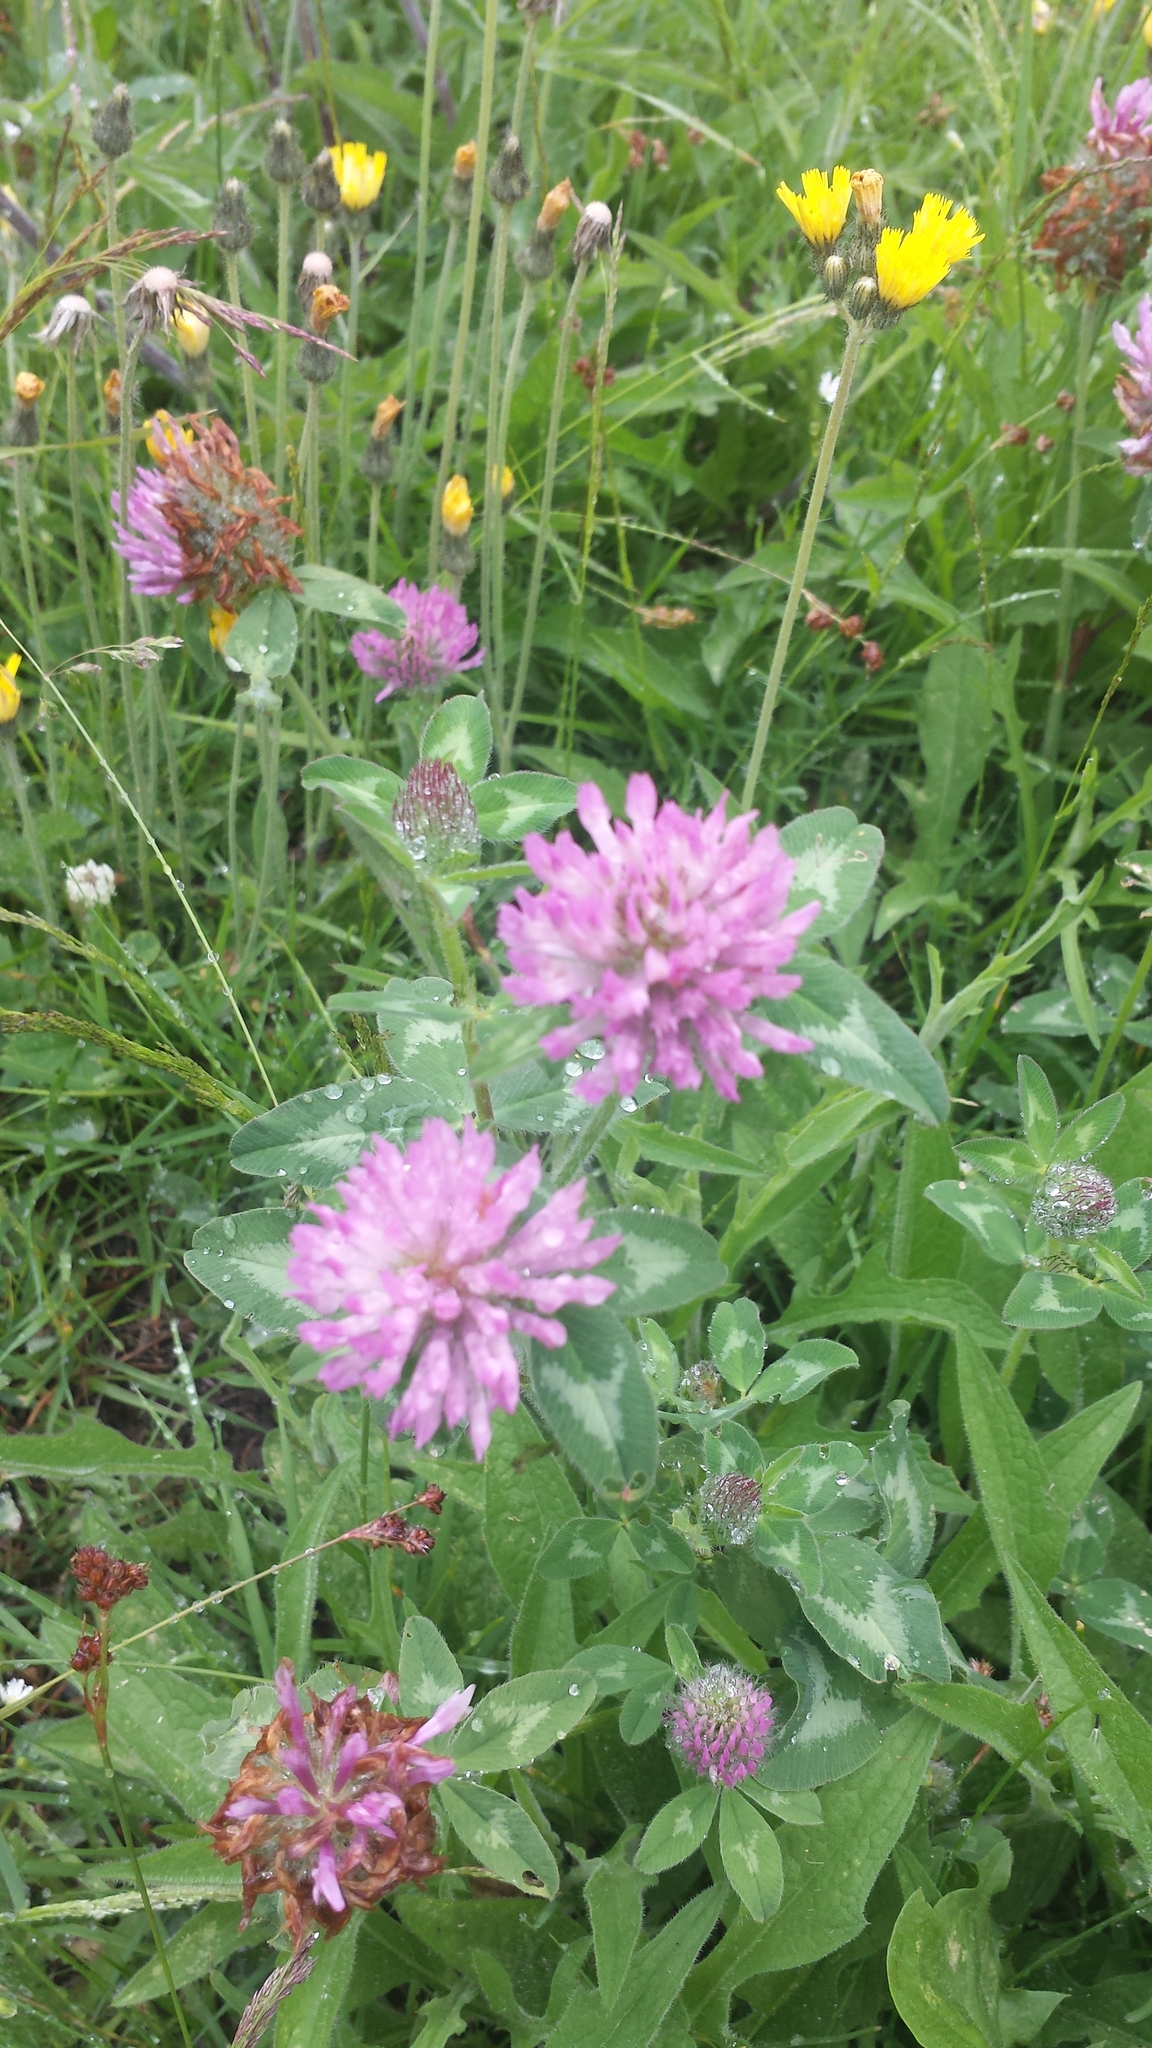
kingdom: Plantae
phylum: Tracheophyta
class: Magnoliopsida
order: Fabales
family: Fabaceae
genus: Trifolium
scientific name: Trifolium pratense
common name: Red clover
